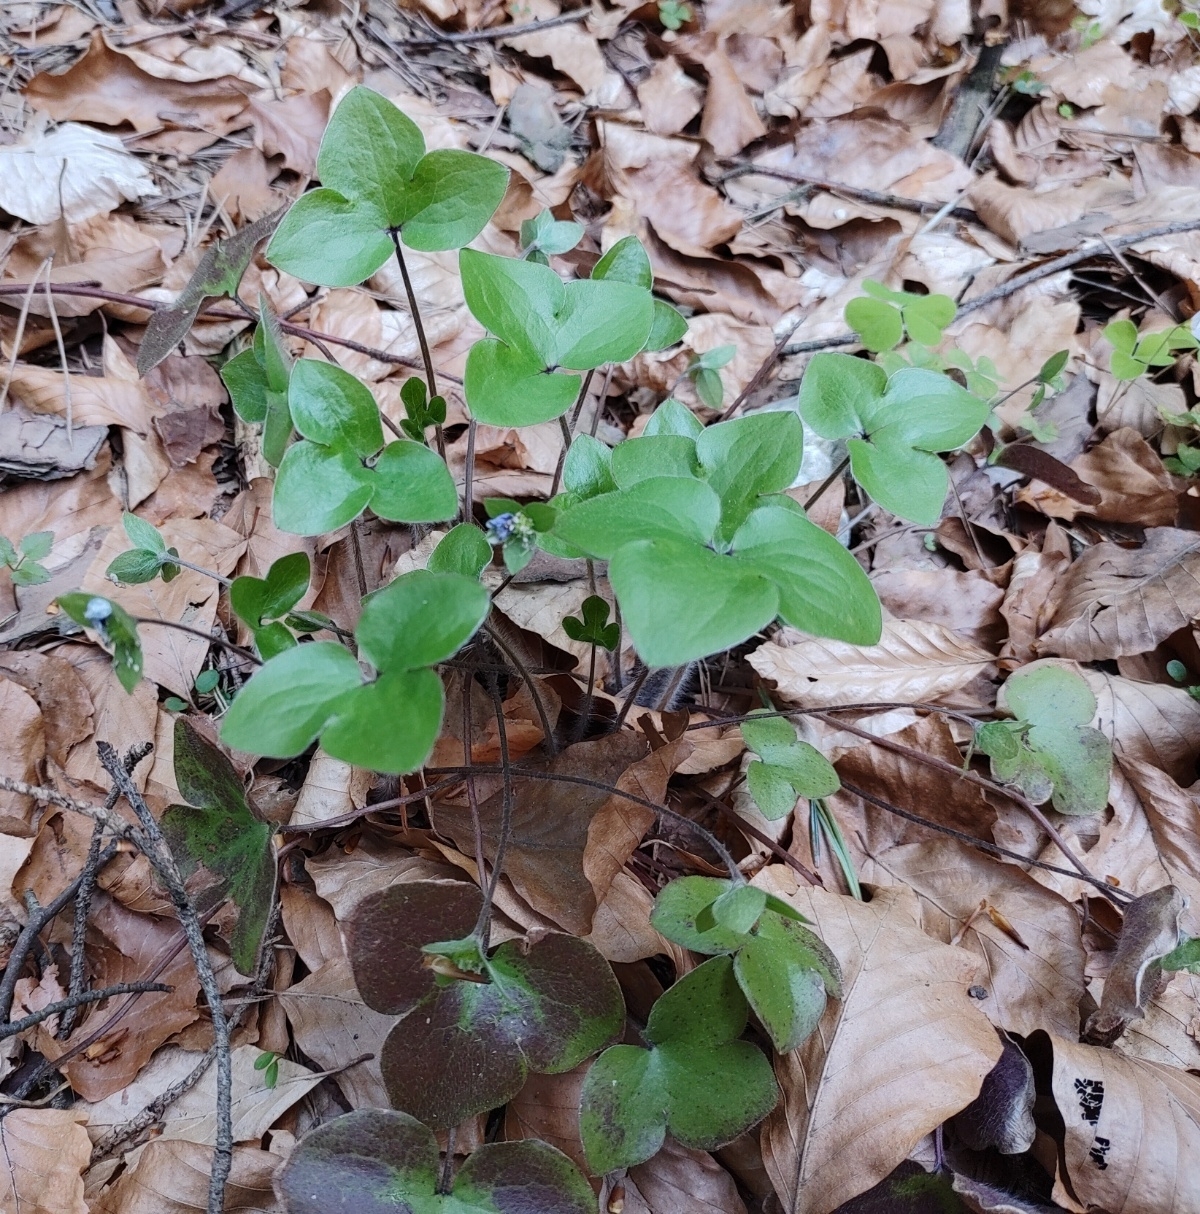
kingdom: Plantae
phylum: Tracheophyta
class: Magnoliopsida
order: Ranunculales
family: Ranunculaceae
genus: Hepatica
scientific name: Hepatica nobilis
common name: Liverleaf
